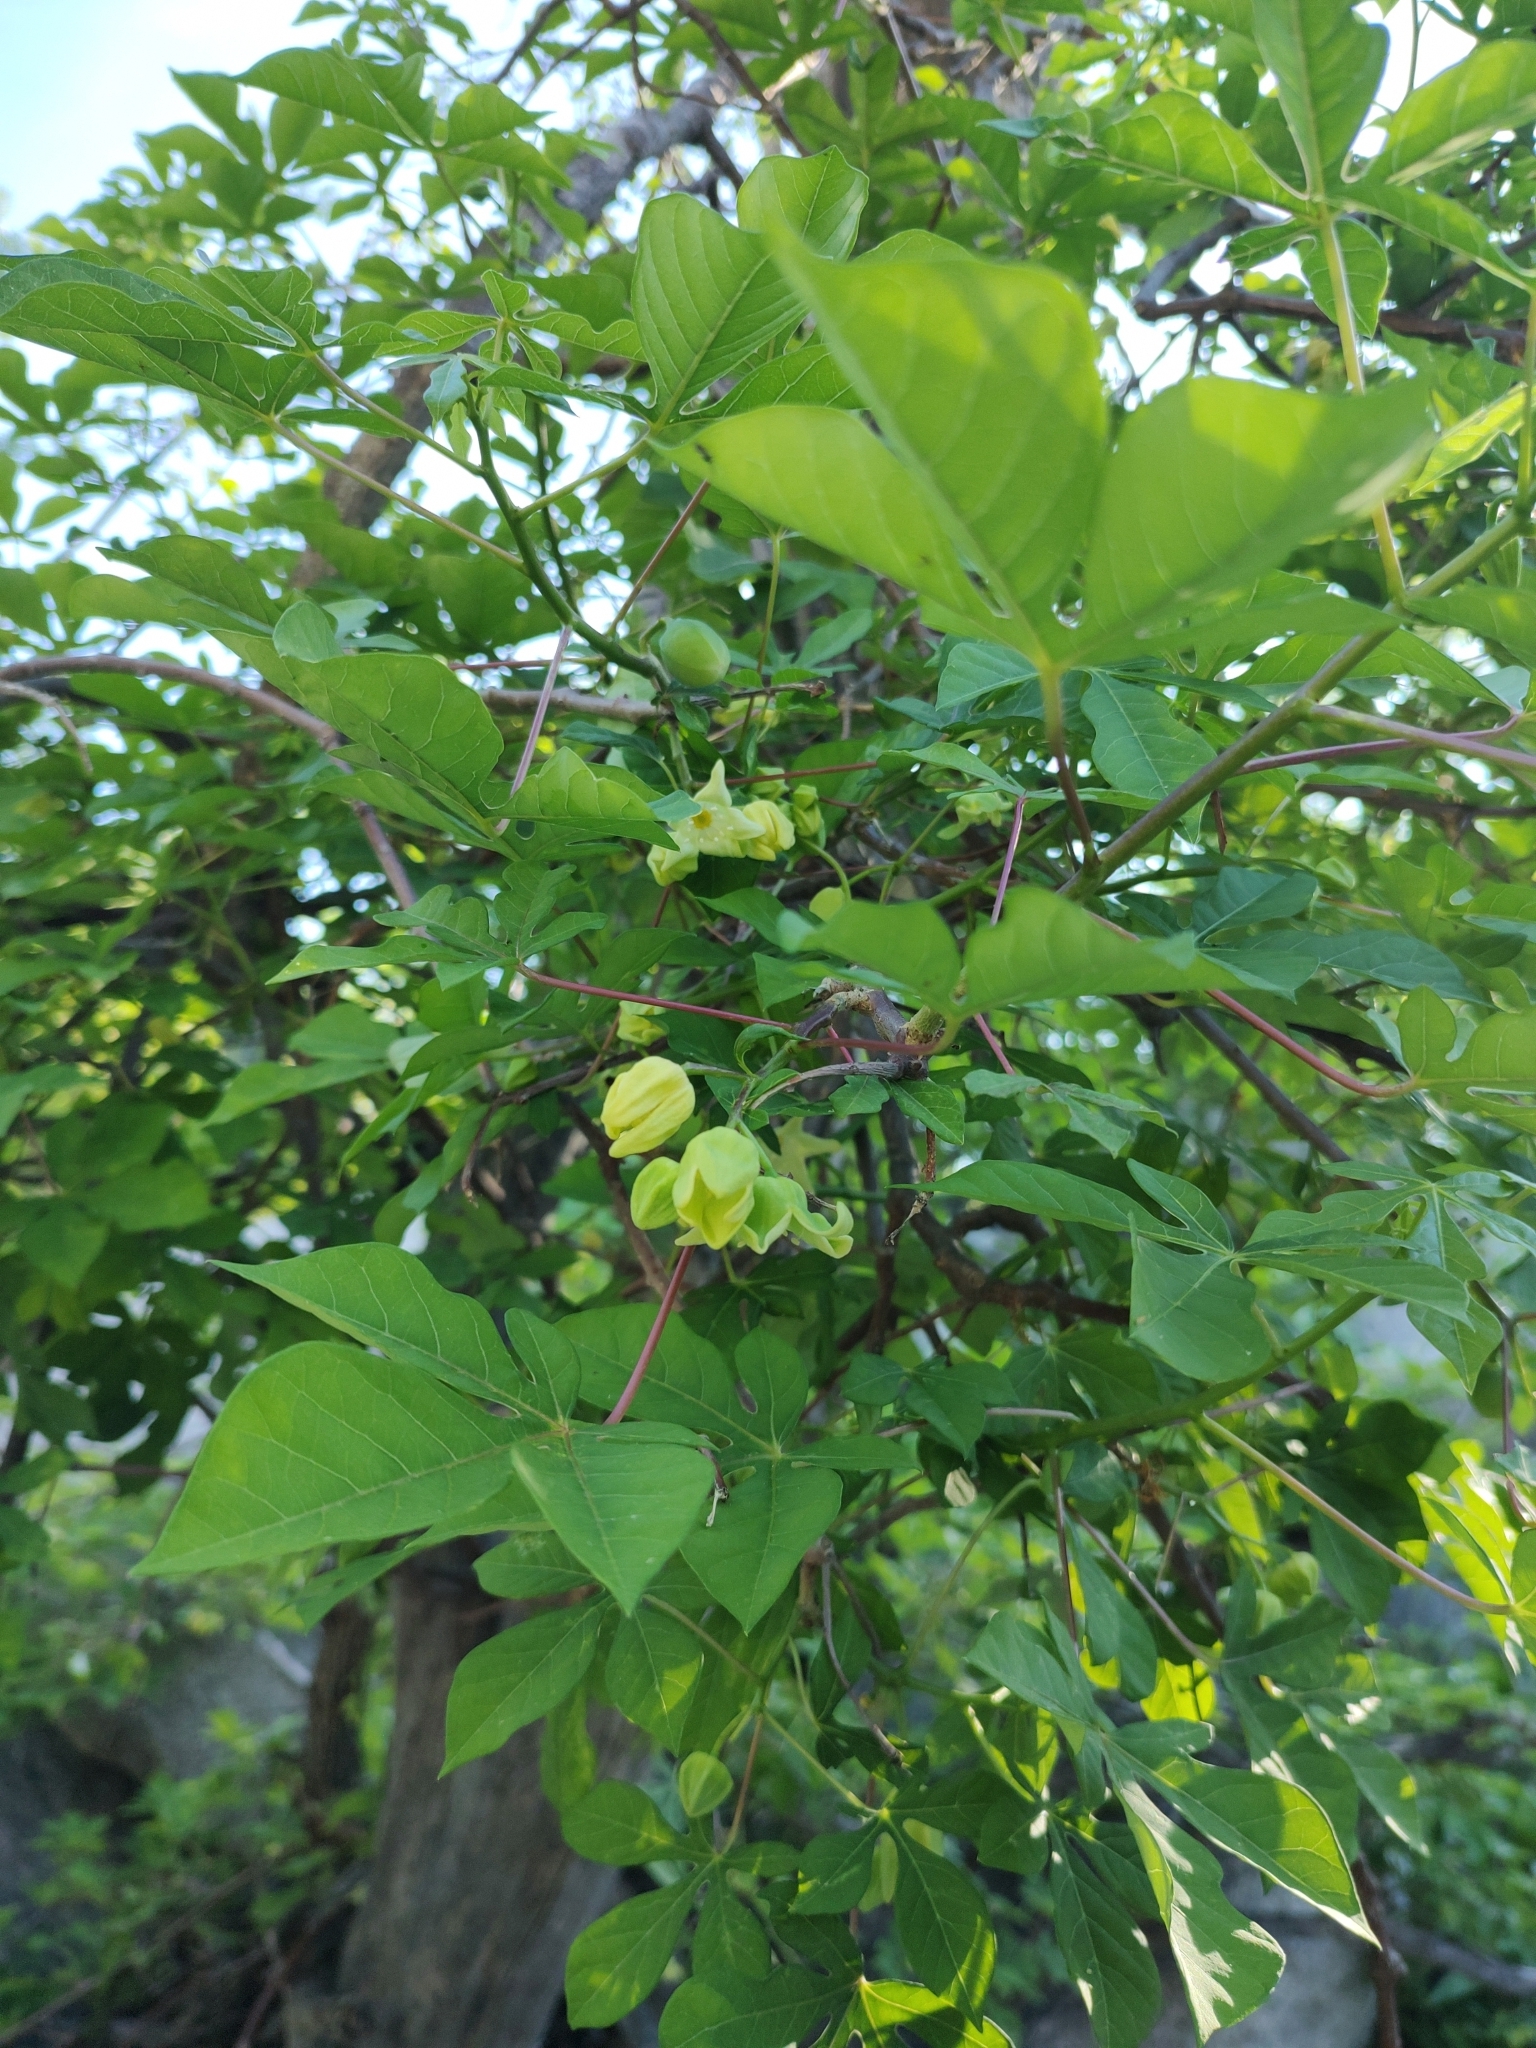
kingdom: Plantae
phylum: Tracheophyta
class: Magnoliopsida
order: Malpighiales
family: Euphorbiaceae
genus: Manihot
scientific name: Manihot chlorosticta
